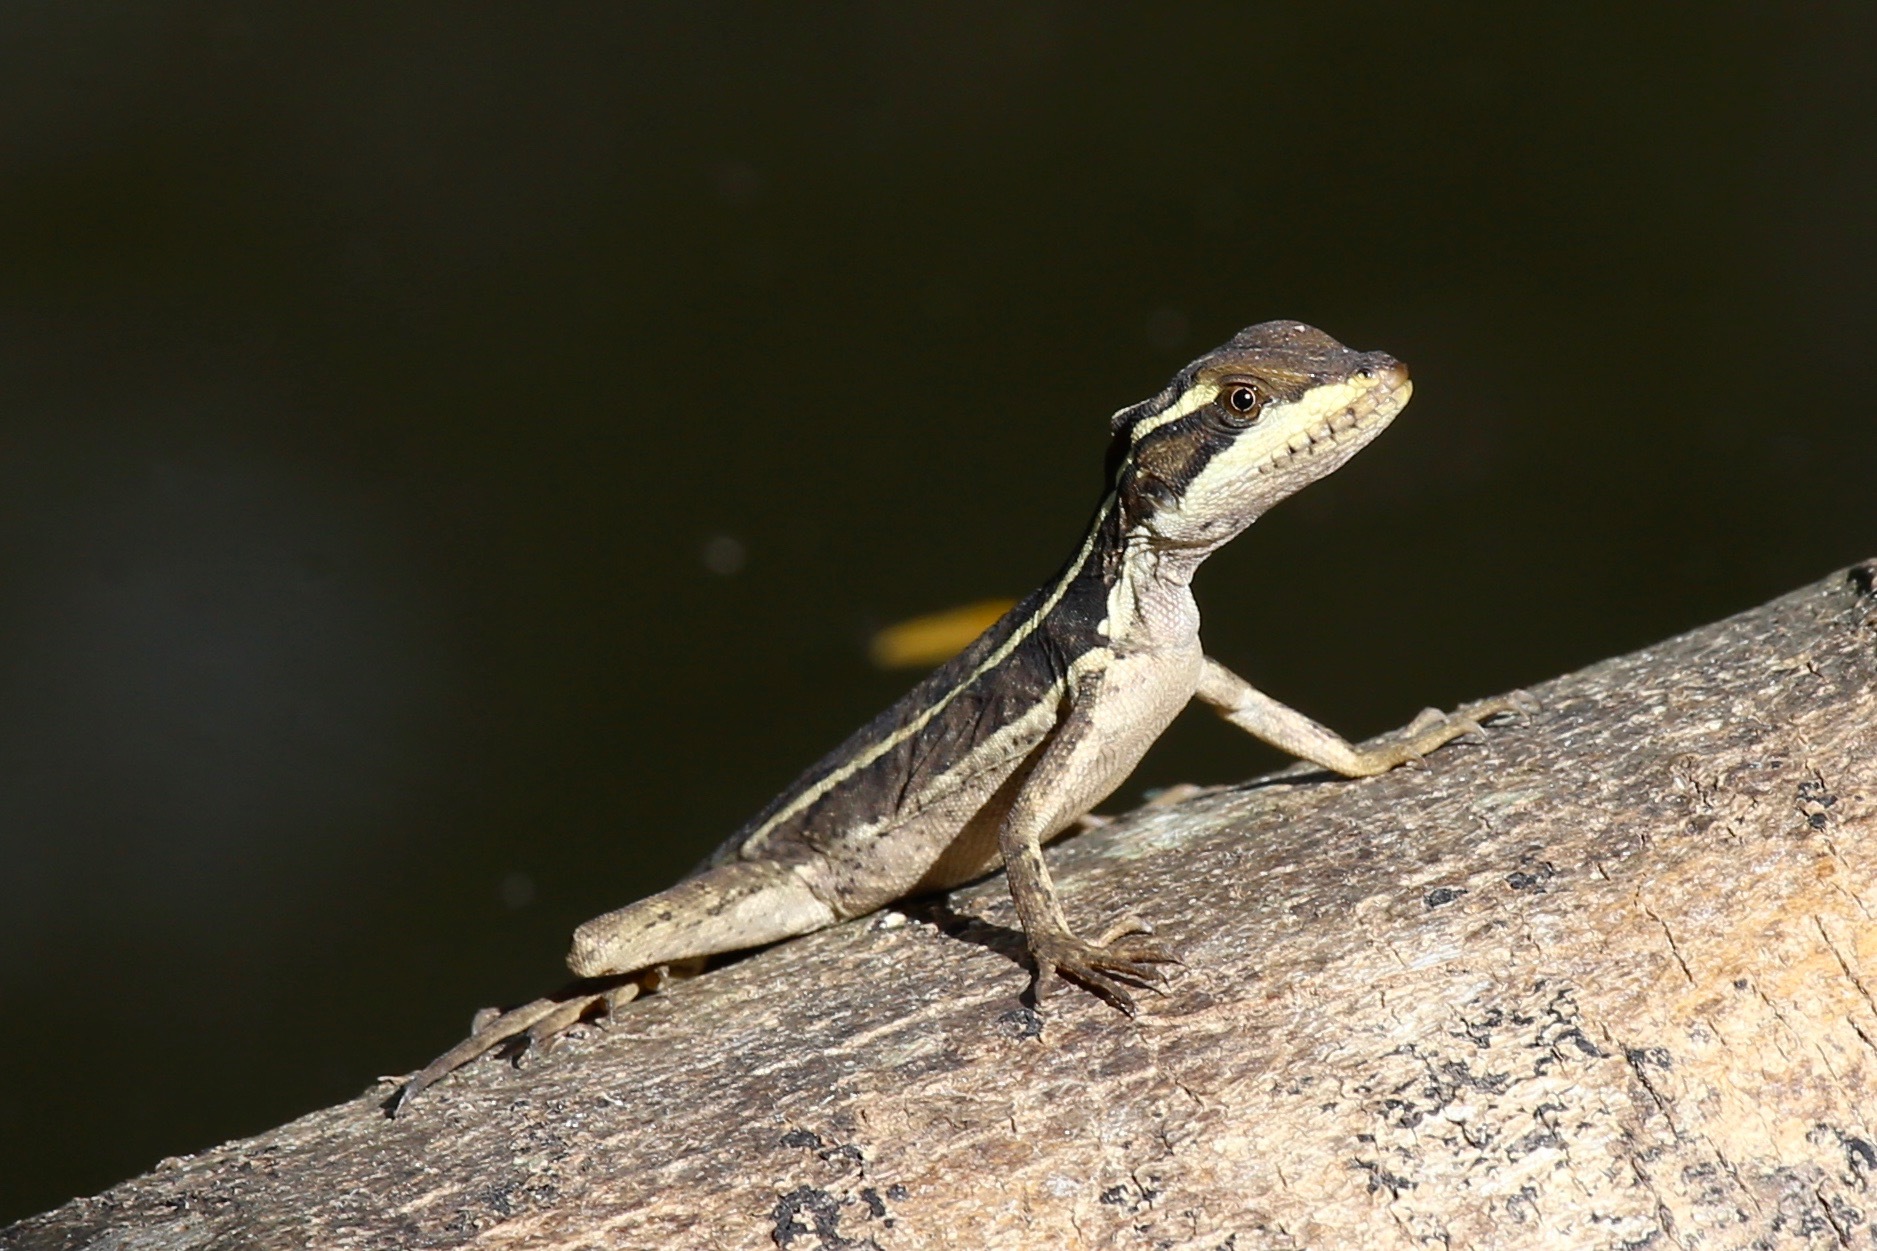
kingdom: Animalia
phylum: Chordata
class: Squamata
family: Corytophanidae
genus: Basiliscus
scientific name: Basiliscus vittatus
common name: Brown basilisk
